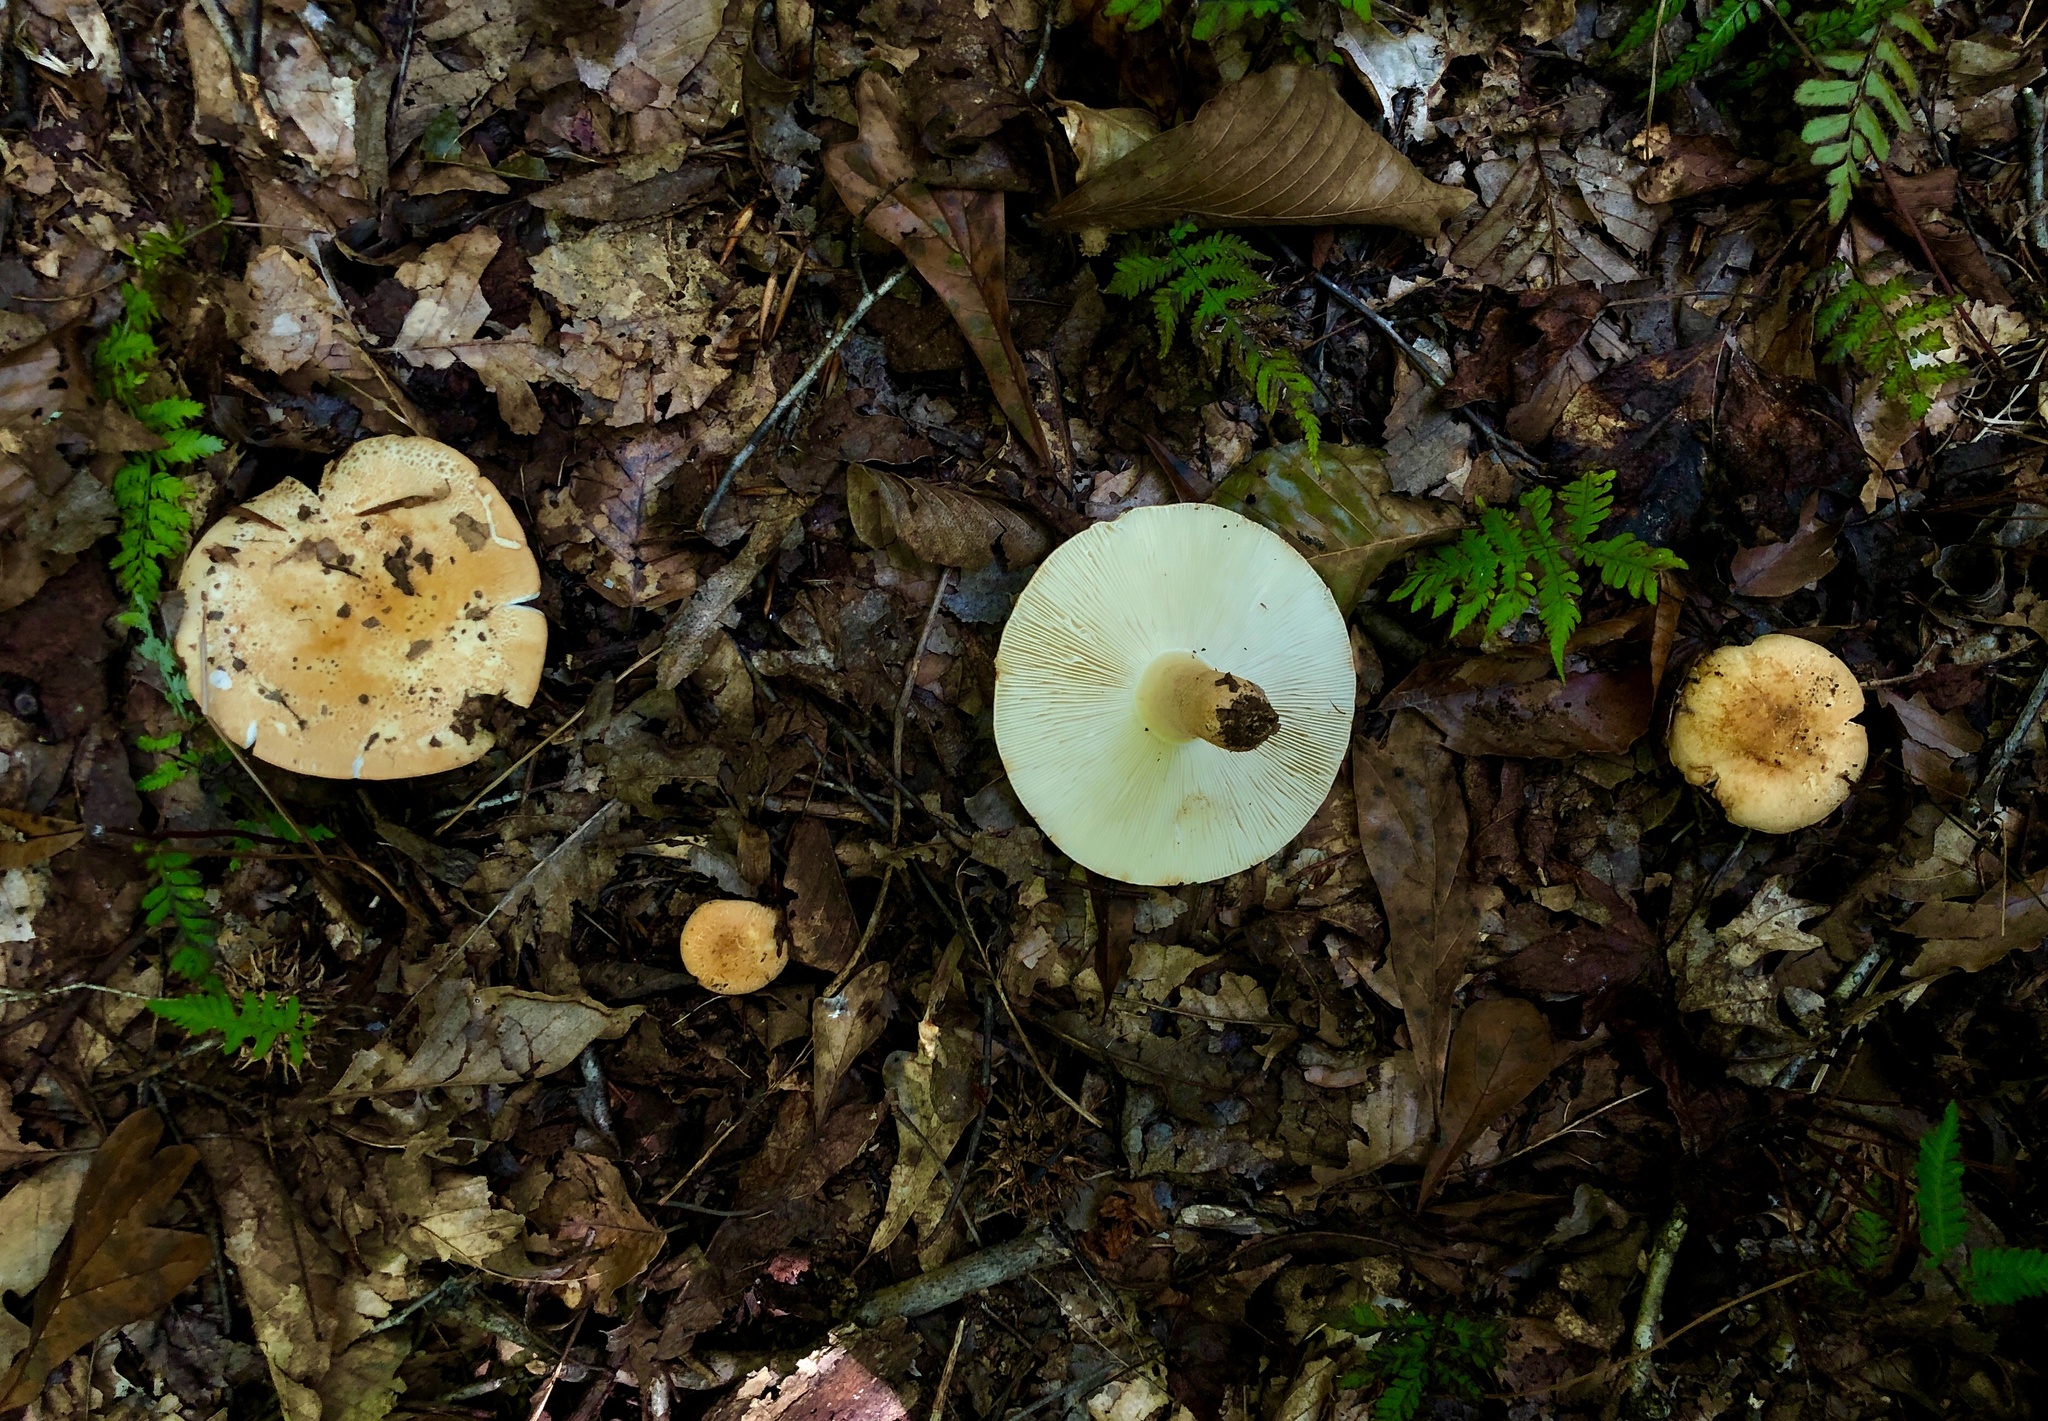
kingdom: Fungi
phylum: Basidiomycota
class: Agaricomycetes
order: Russulales
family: Russulaceae
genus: Russula
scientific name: Russula ballouii
